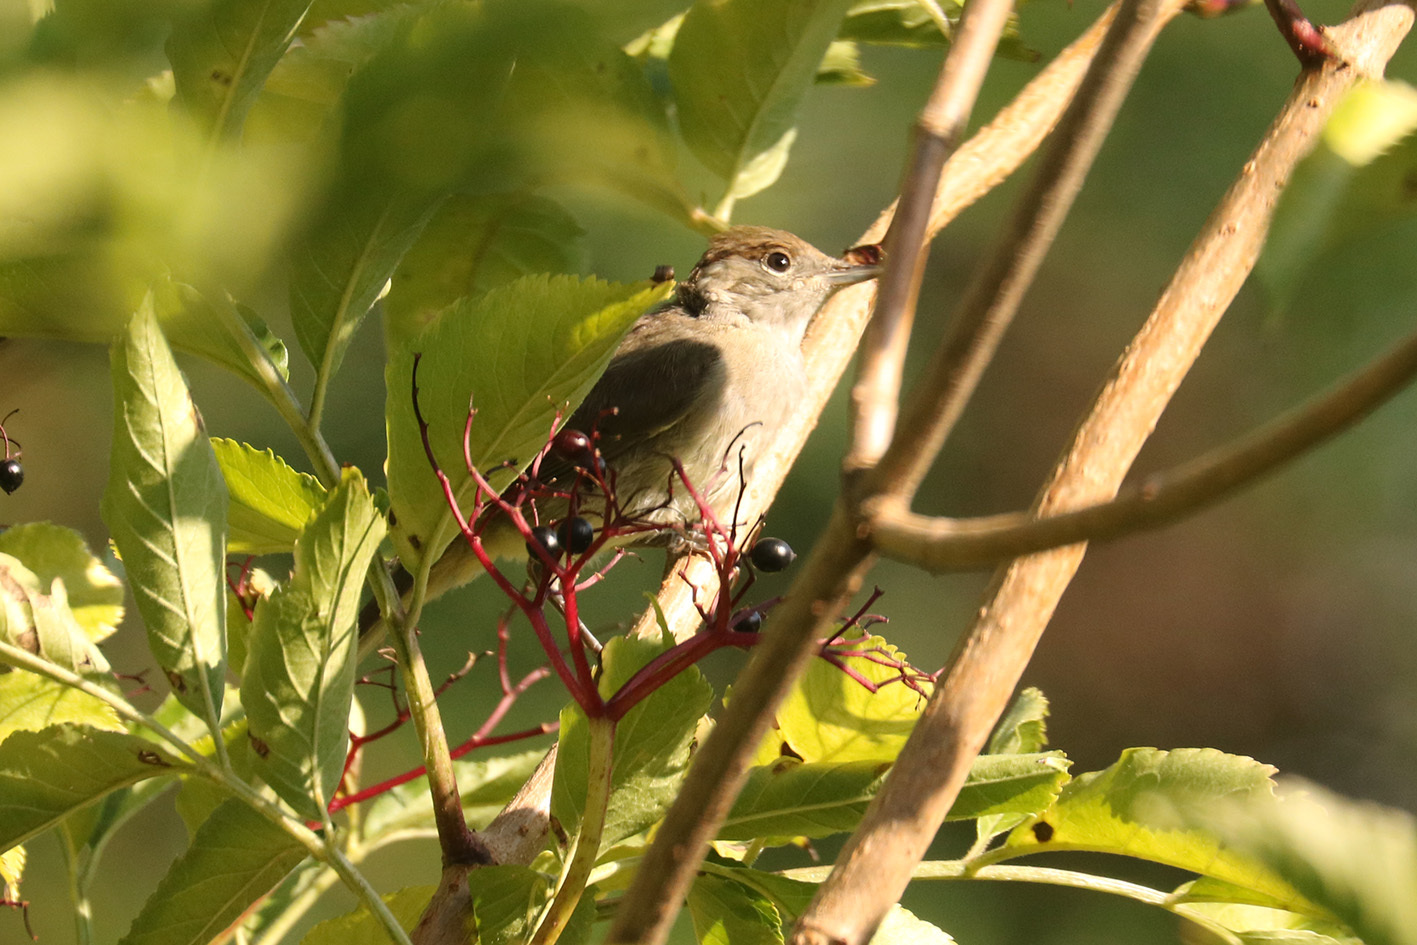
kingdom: Animalia
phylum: Chordata
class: Aves
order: Passeriformes
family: Sylviidae
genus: Sylvia
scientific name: Sylvia atricapilla
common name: Eurasian blackcap
